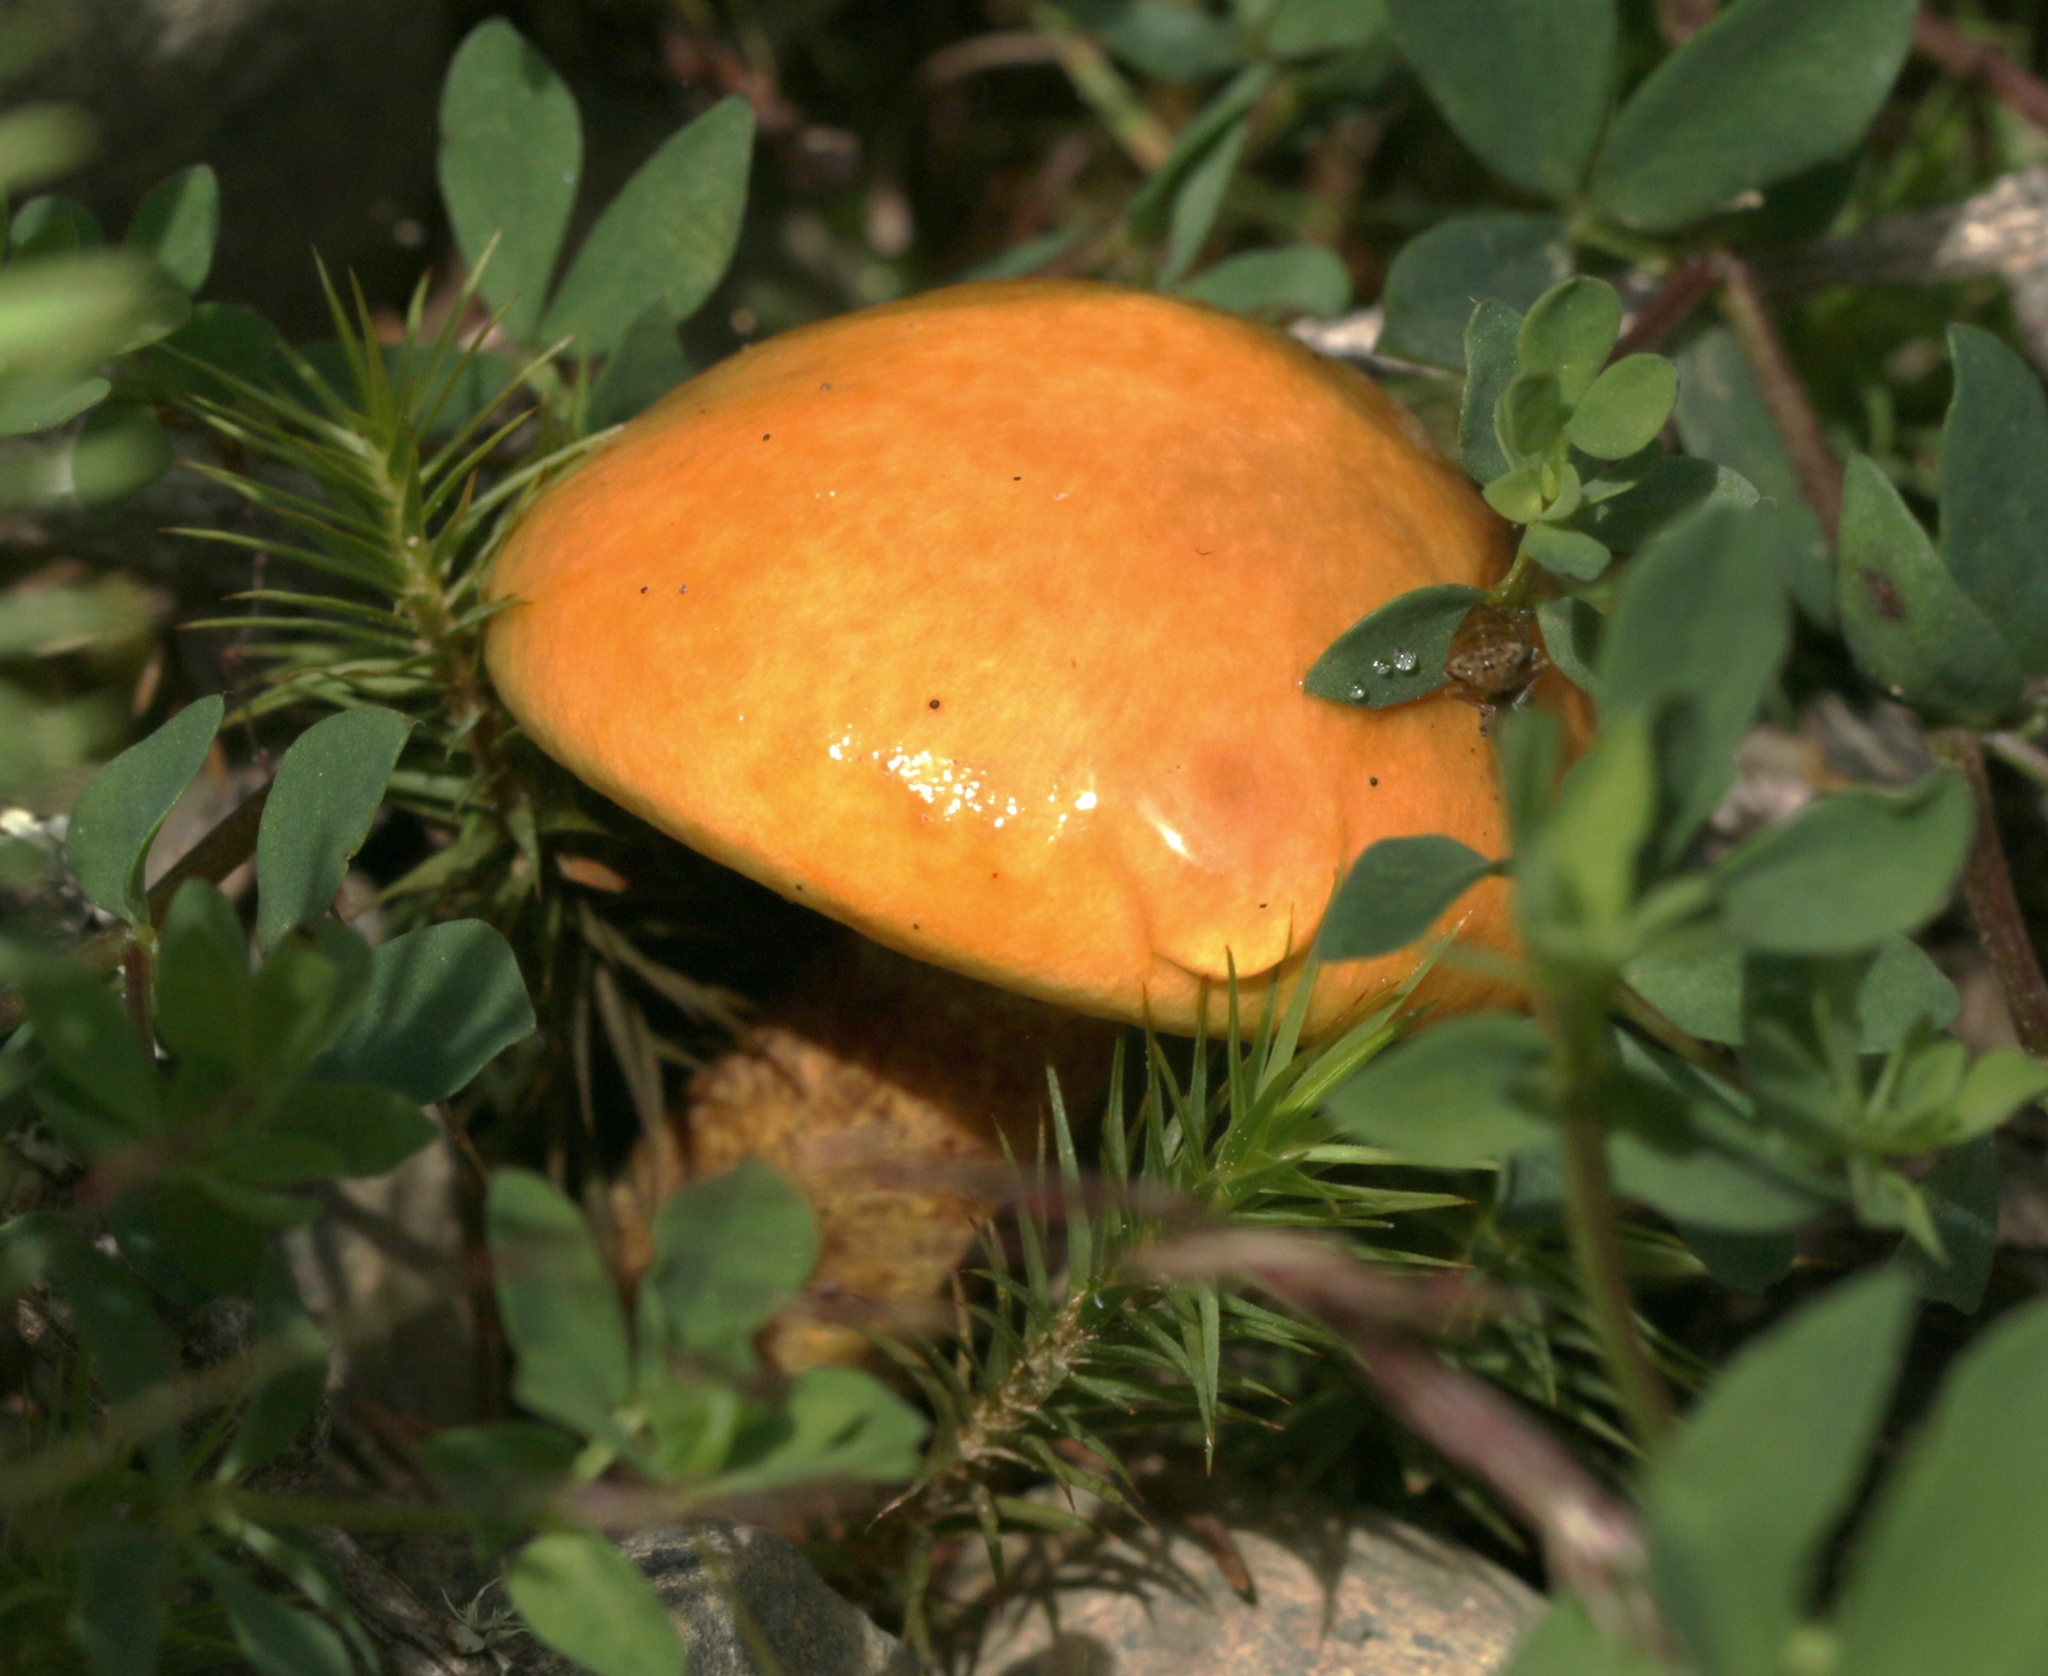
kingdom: Fungi
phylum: Basidiomycota
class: Agaricomycetes
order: Boletales
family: Suillaceae
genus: Suillus
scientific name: Suillus grevillei
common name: Larch bolete
